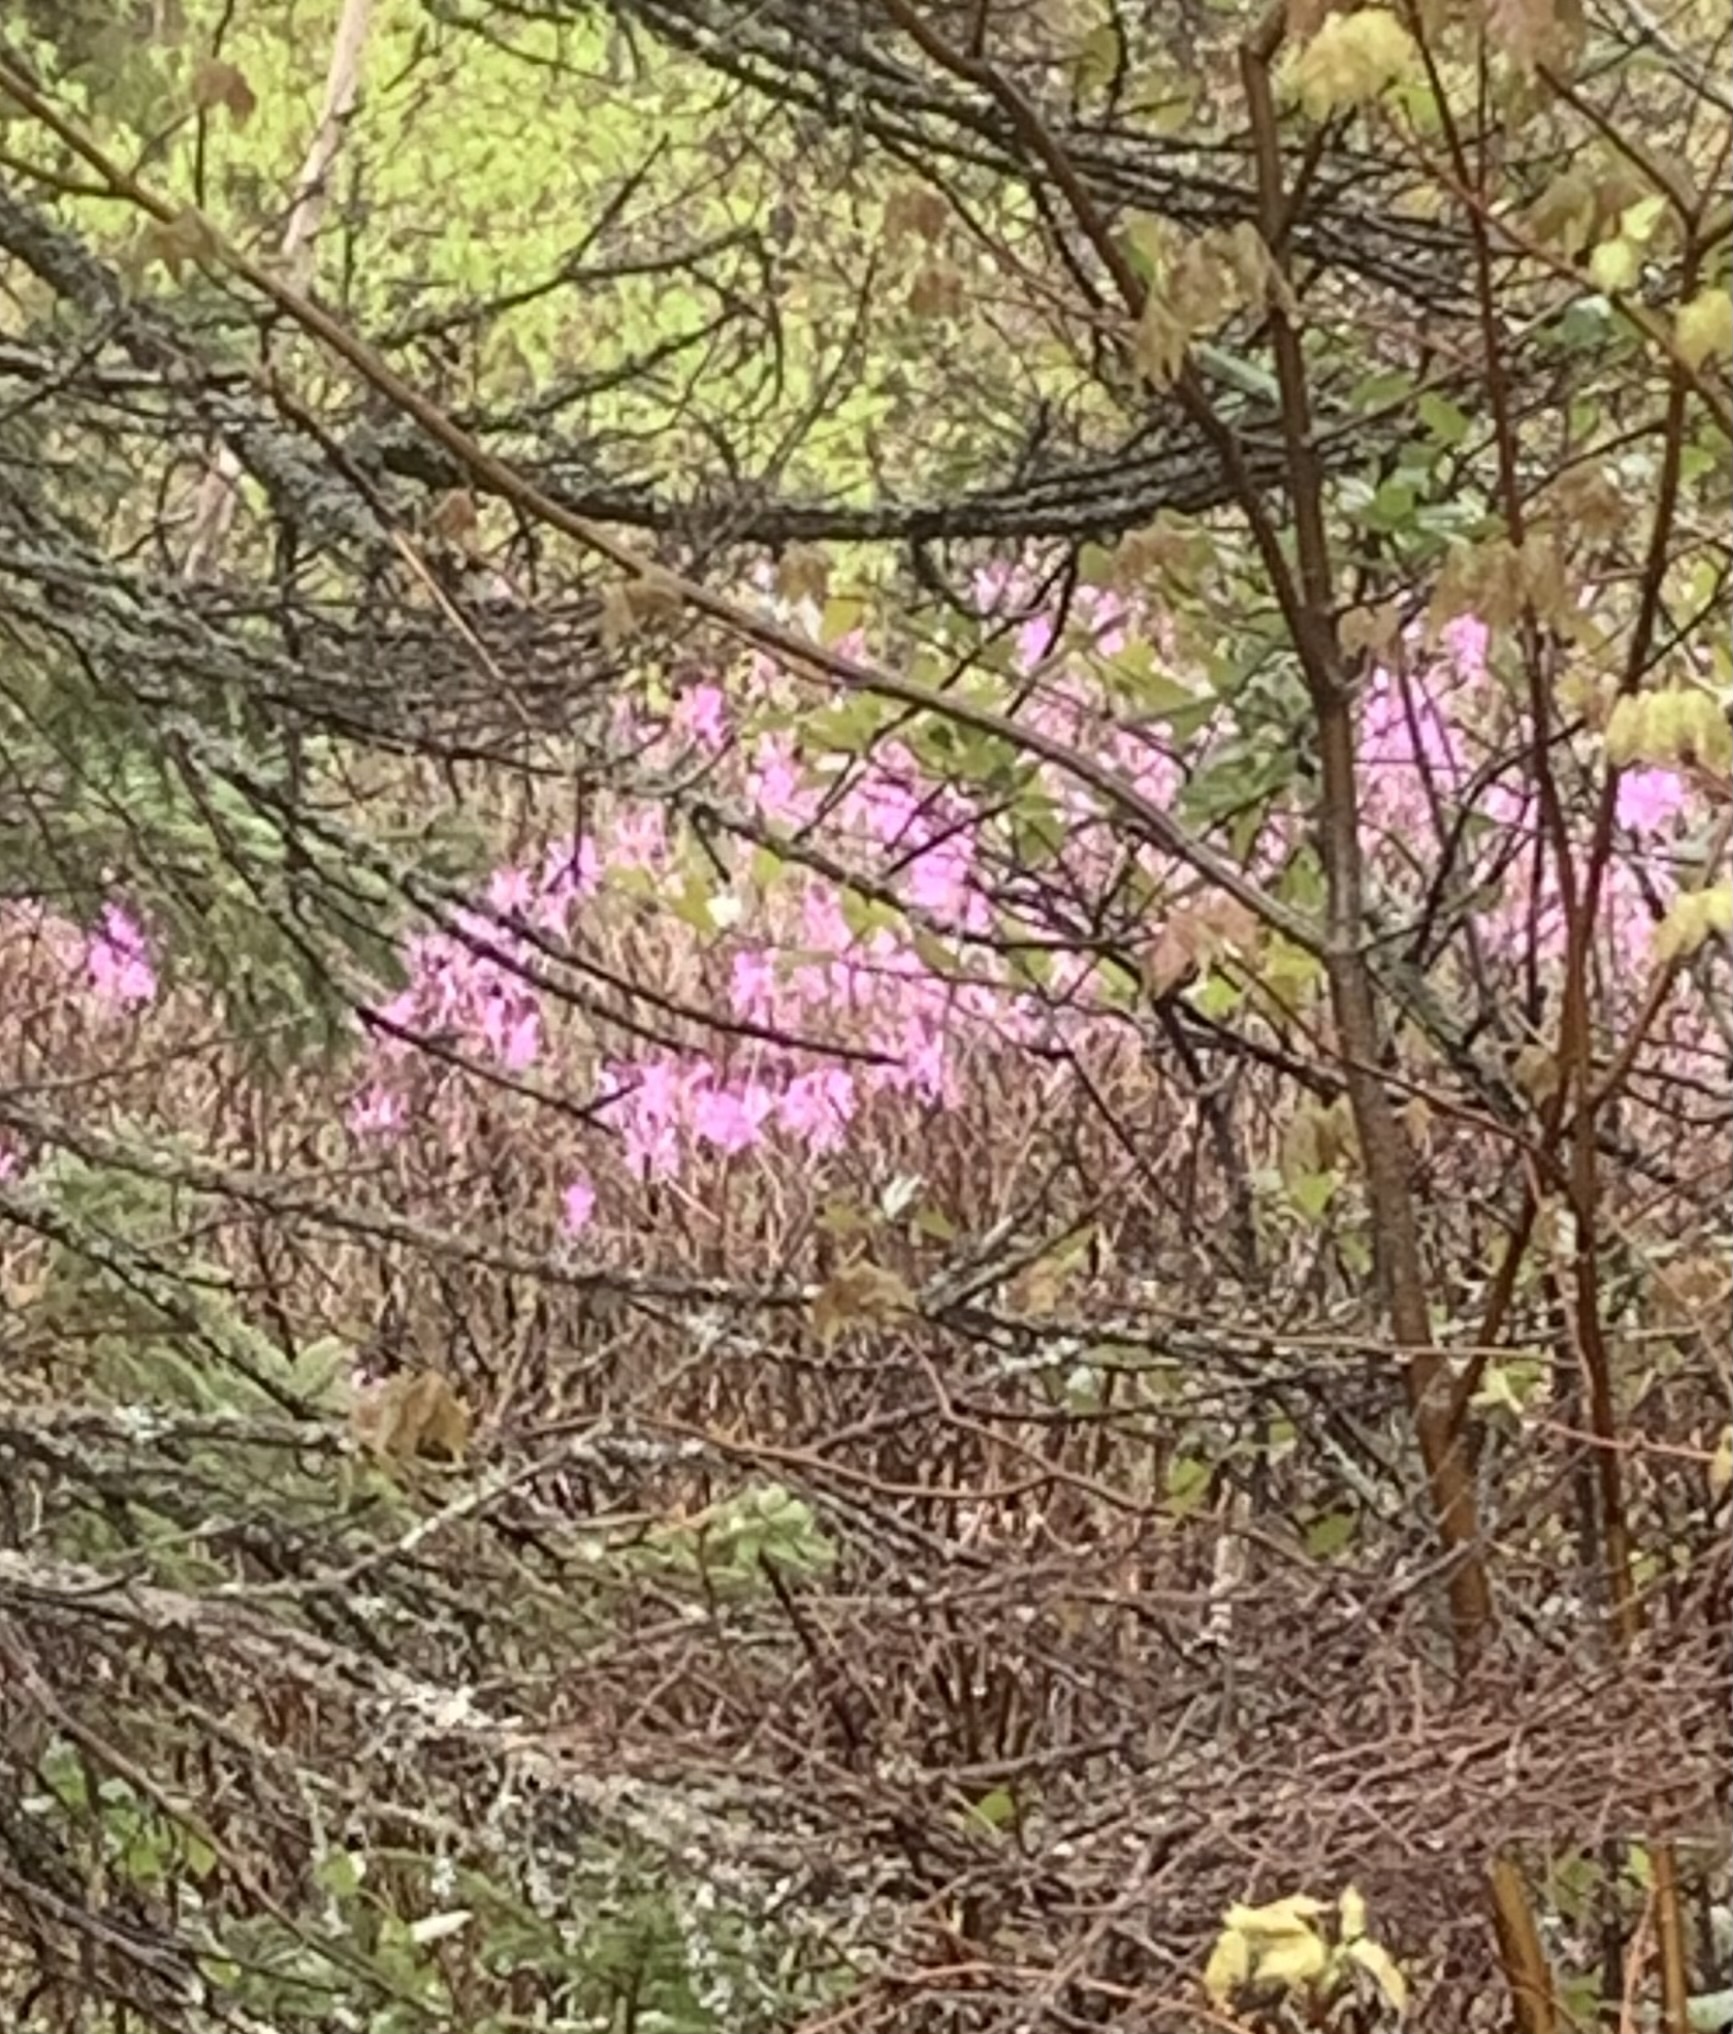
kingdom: Plantae
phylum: Tracheophyta
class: Magnoliopsida
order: Ericales
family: Ericaceae
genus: Rhododendron
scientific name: Rhododendron canadense
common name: Rhodora
